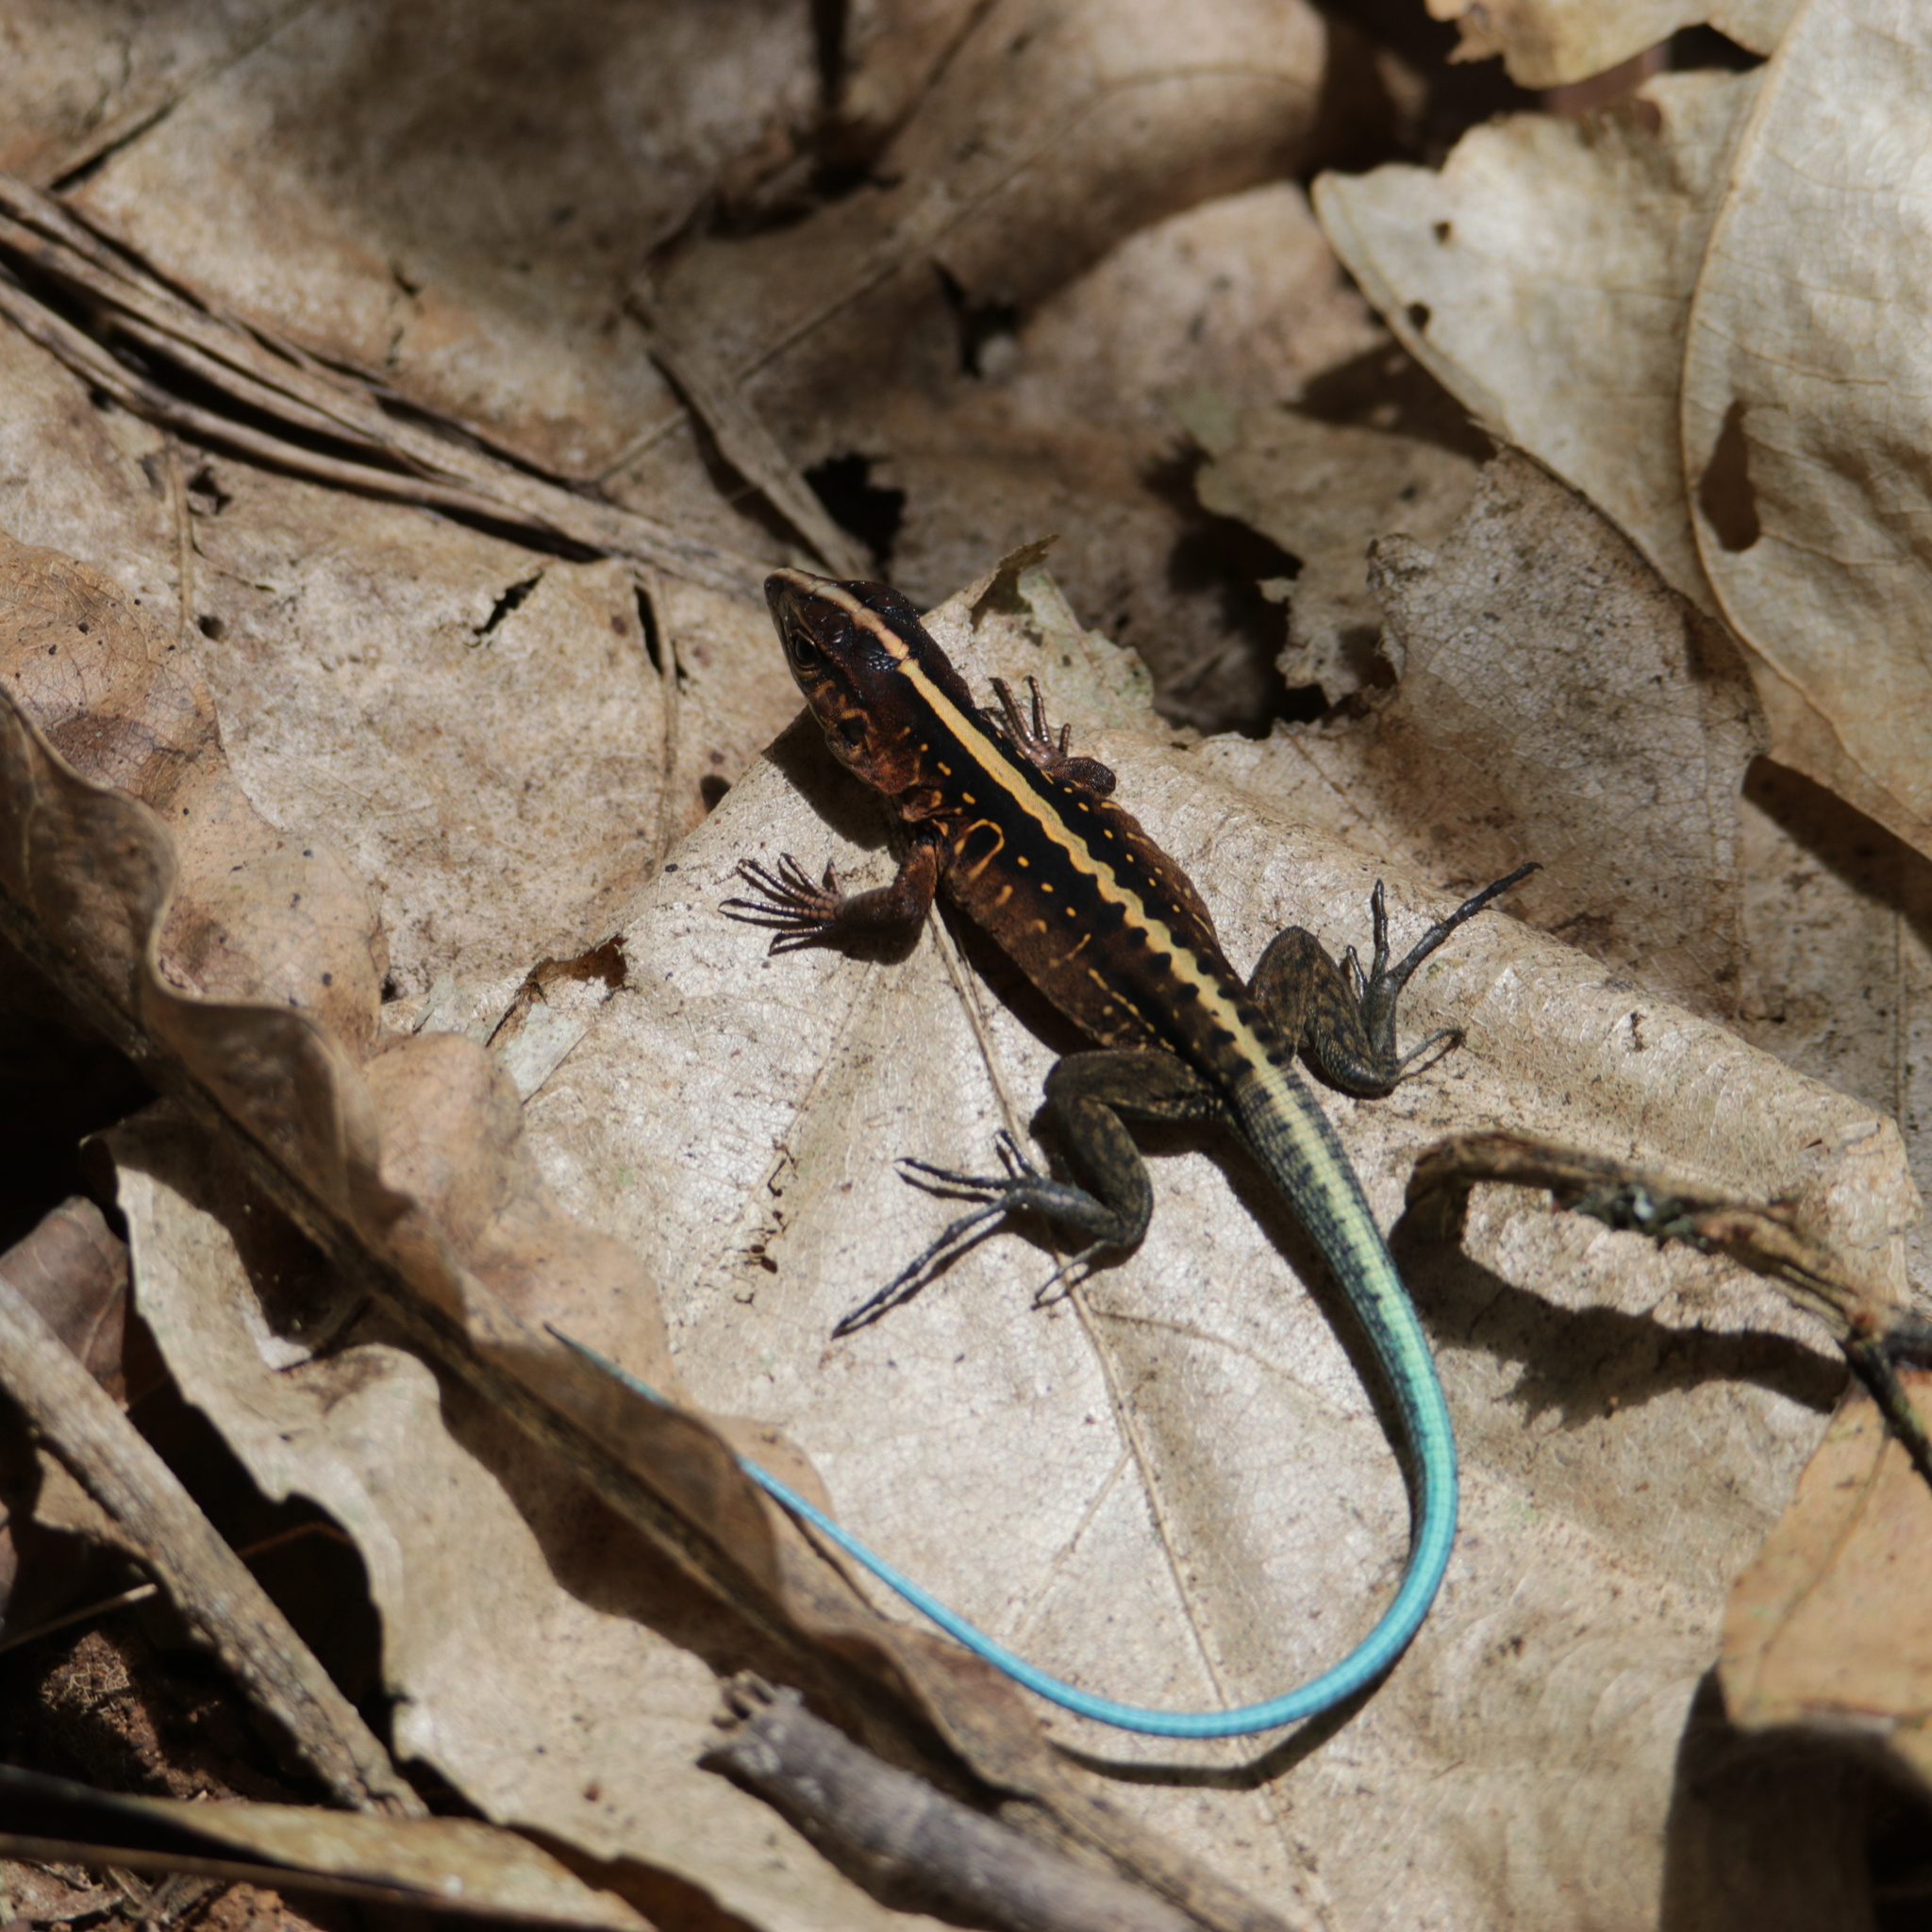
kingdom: Animalia
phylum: Chordata
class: Squamata
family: Teiidae
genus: Holcosus
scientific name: Holcosus festivus
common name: Middle american ameiva
